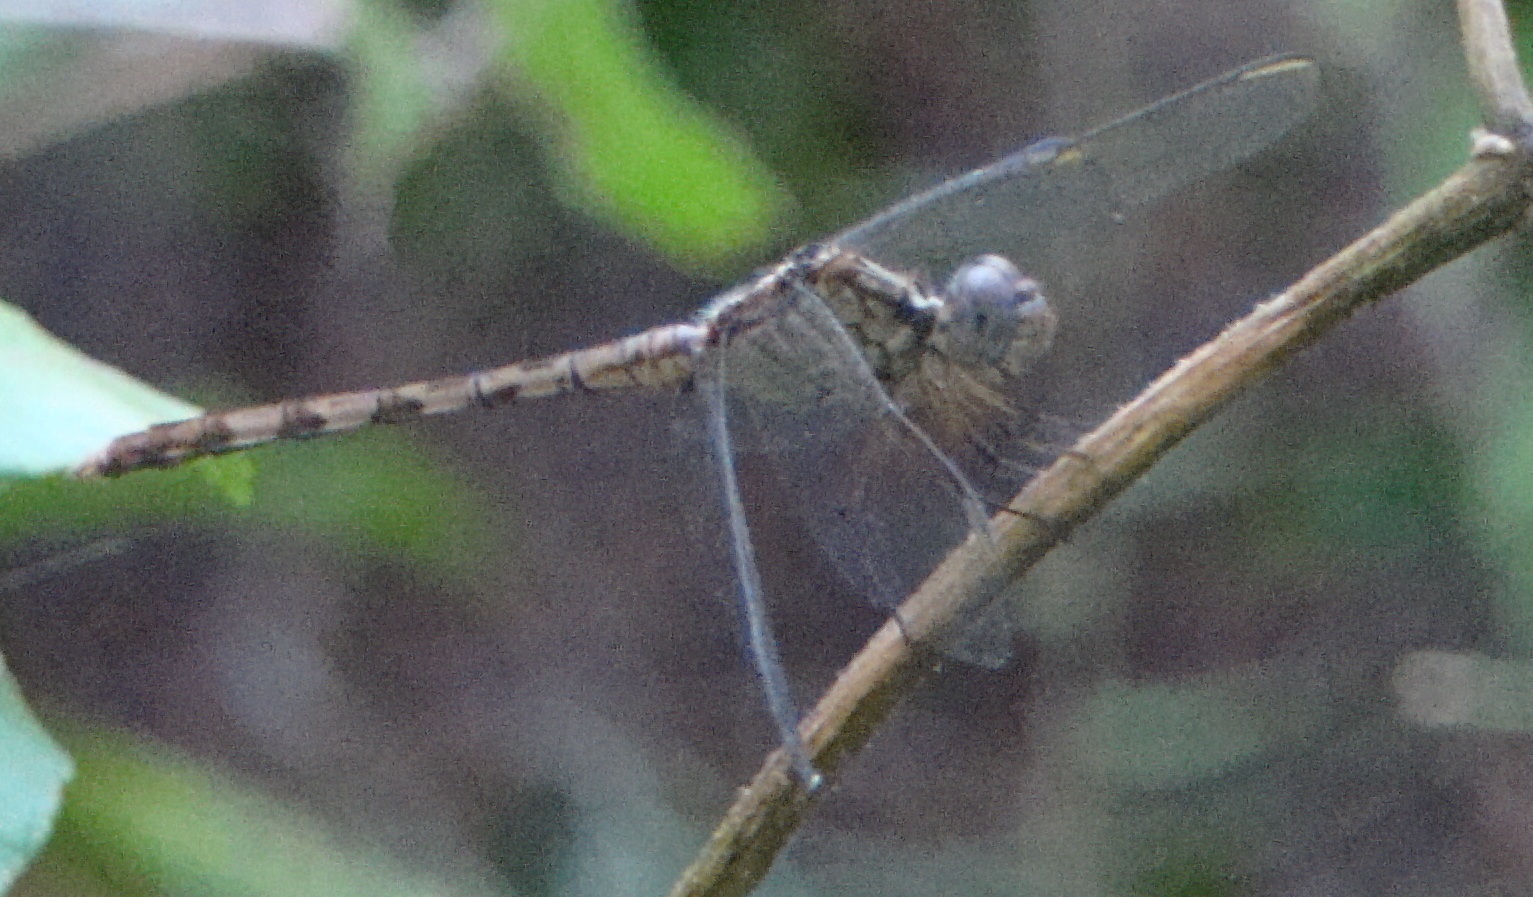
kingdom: Animalia
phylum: Arthropoda
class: Insecta
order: Odonata
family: Libellulidae
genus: Erythrodiplax
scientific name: Erythrodiplax umbrata
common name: Band-winged dragonlet
